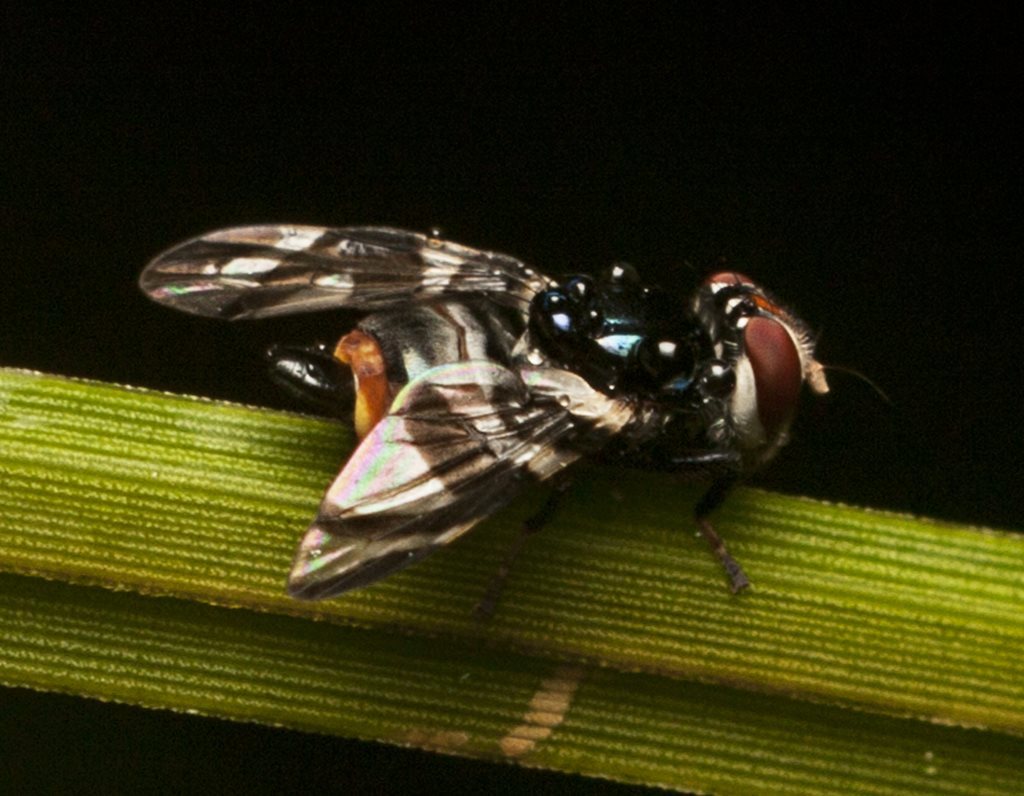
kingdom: Animalia
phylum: Arthropoda
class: Insecta
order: Diptera
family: Platystomatidae
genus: Lenophila
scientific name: Lenophila secta
